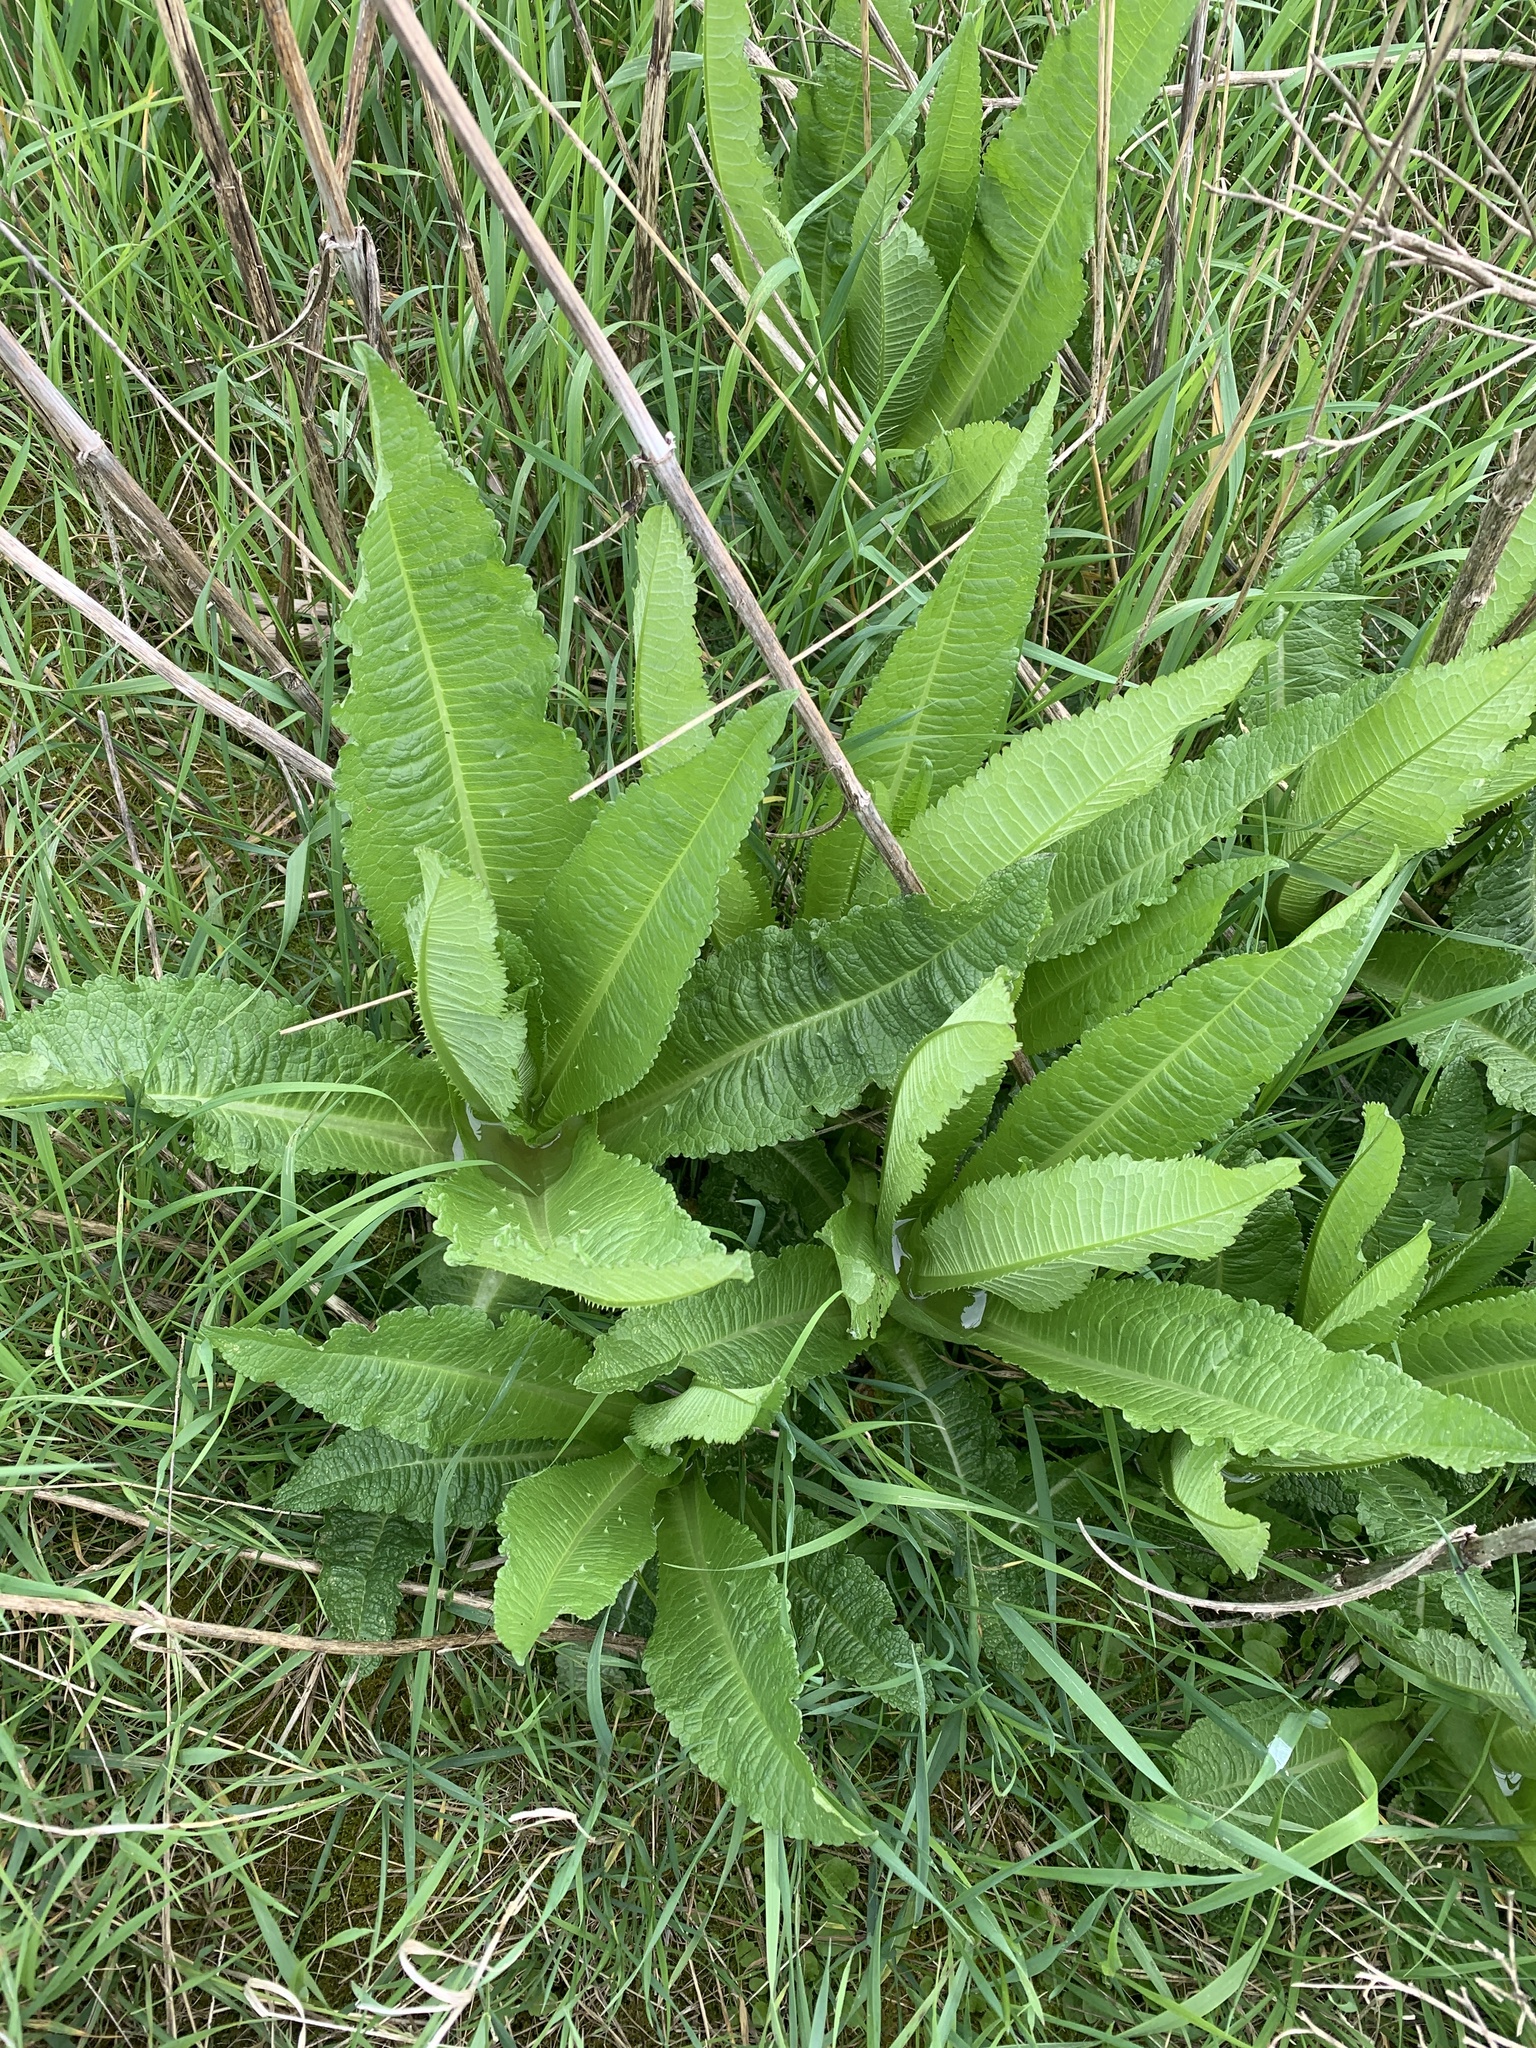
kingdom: Plantae
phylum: Tracheophyta
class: Magnoliopsida
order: Dipsacales
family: Caprifoliaceae
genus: Dipsacus
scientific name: Dipsacus fullonum
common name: Teasel
